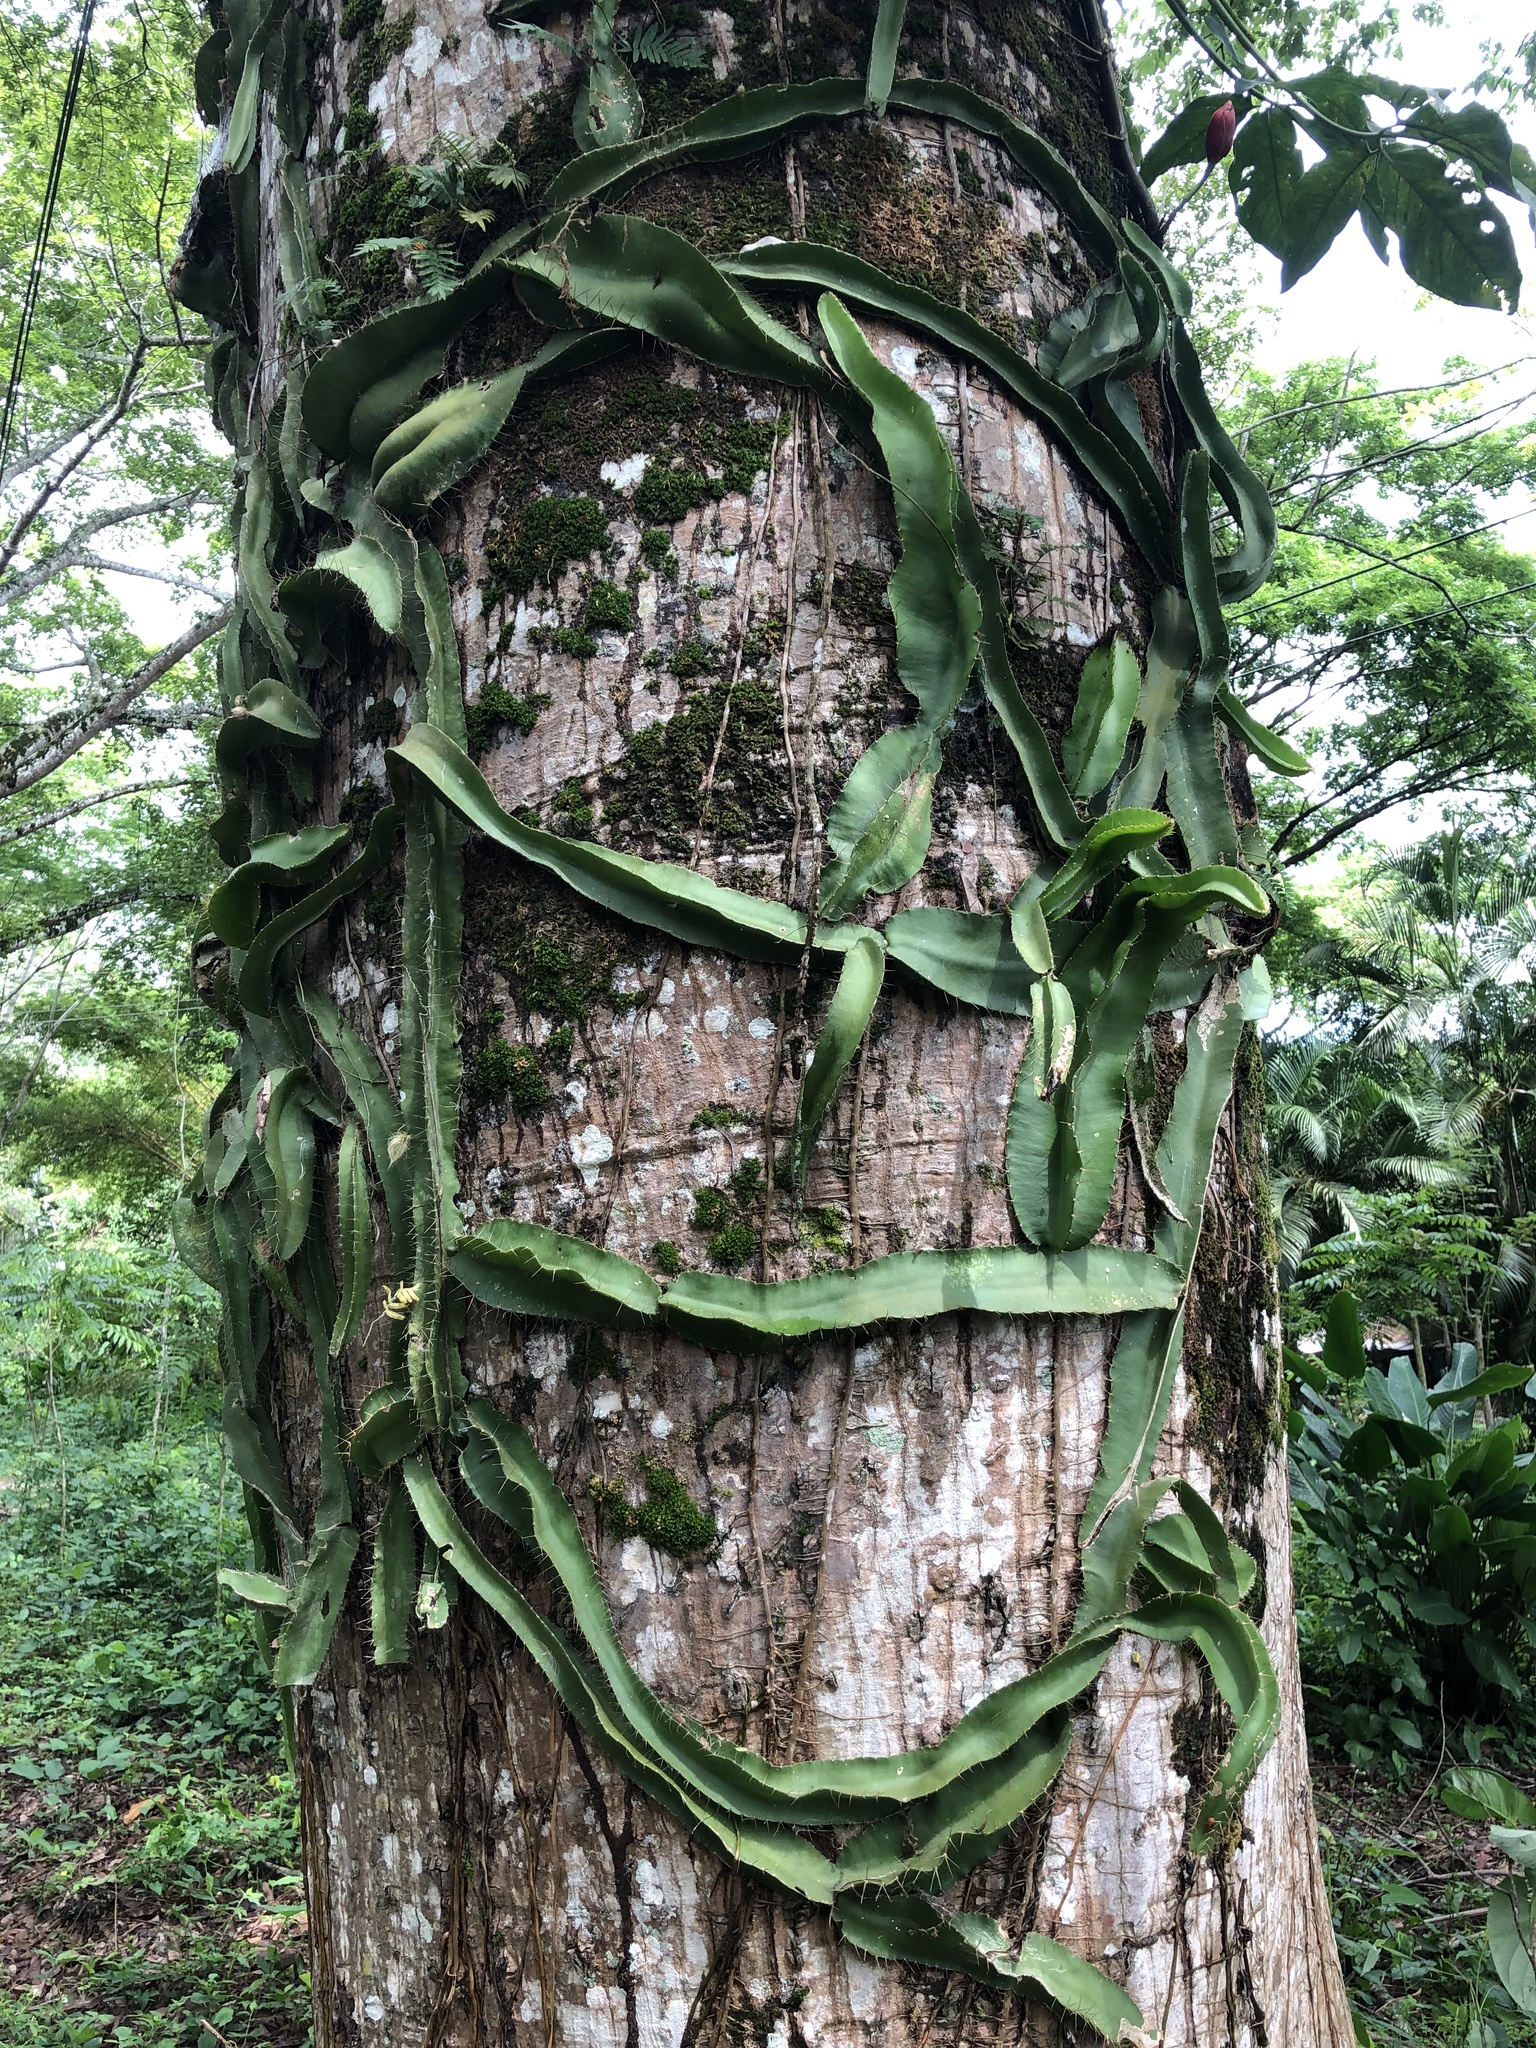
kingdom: Plantae
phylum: Tracheophyta
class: Magnoliopsida
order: Caryophyllales
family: Cactaceae
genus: Deamia
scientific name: Deamia testudo
